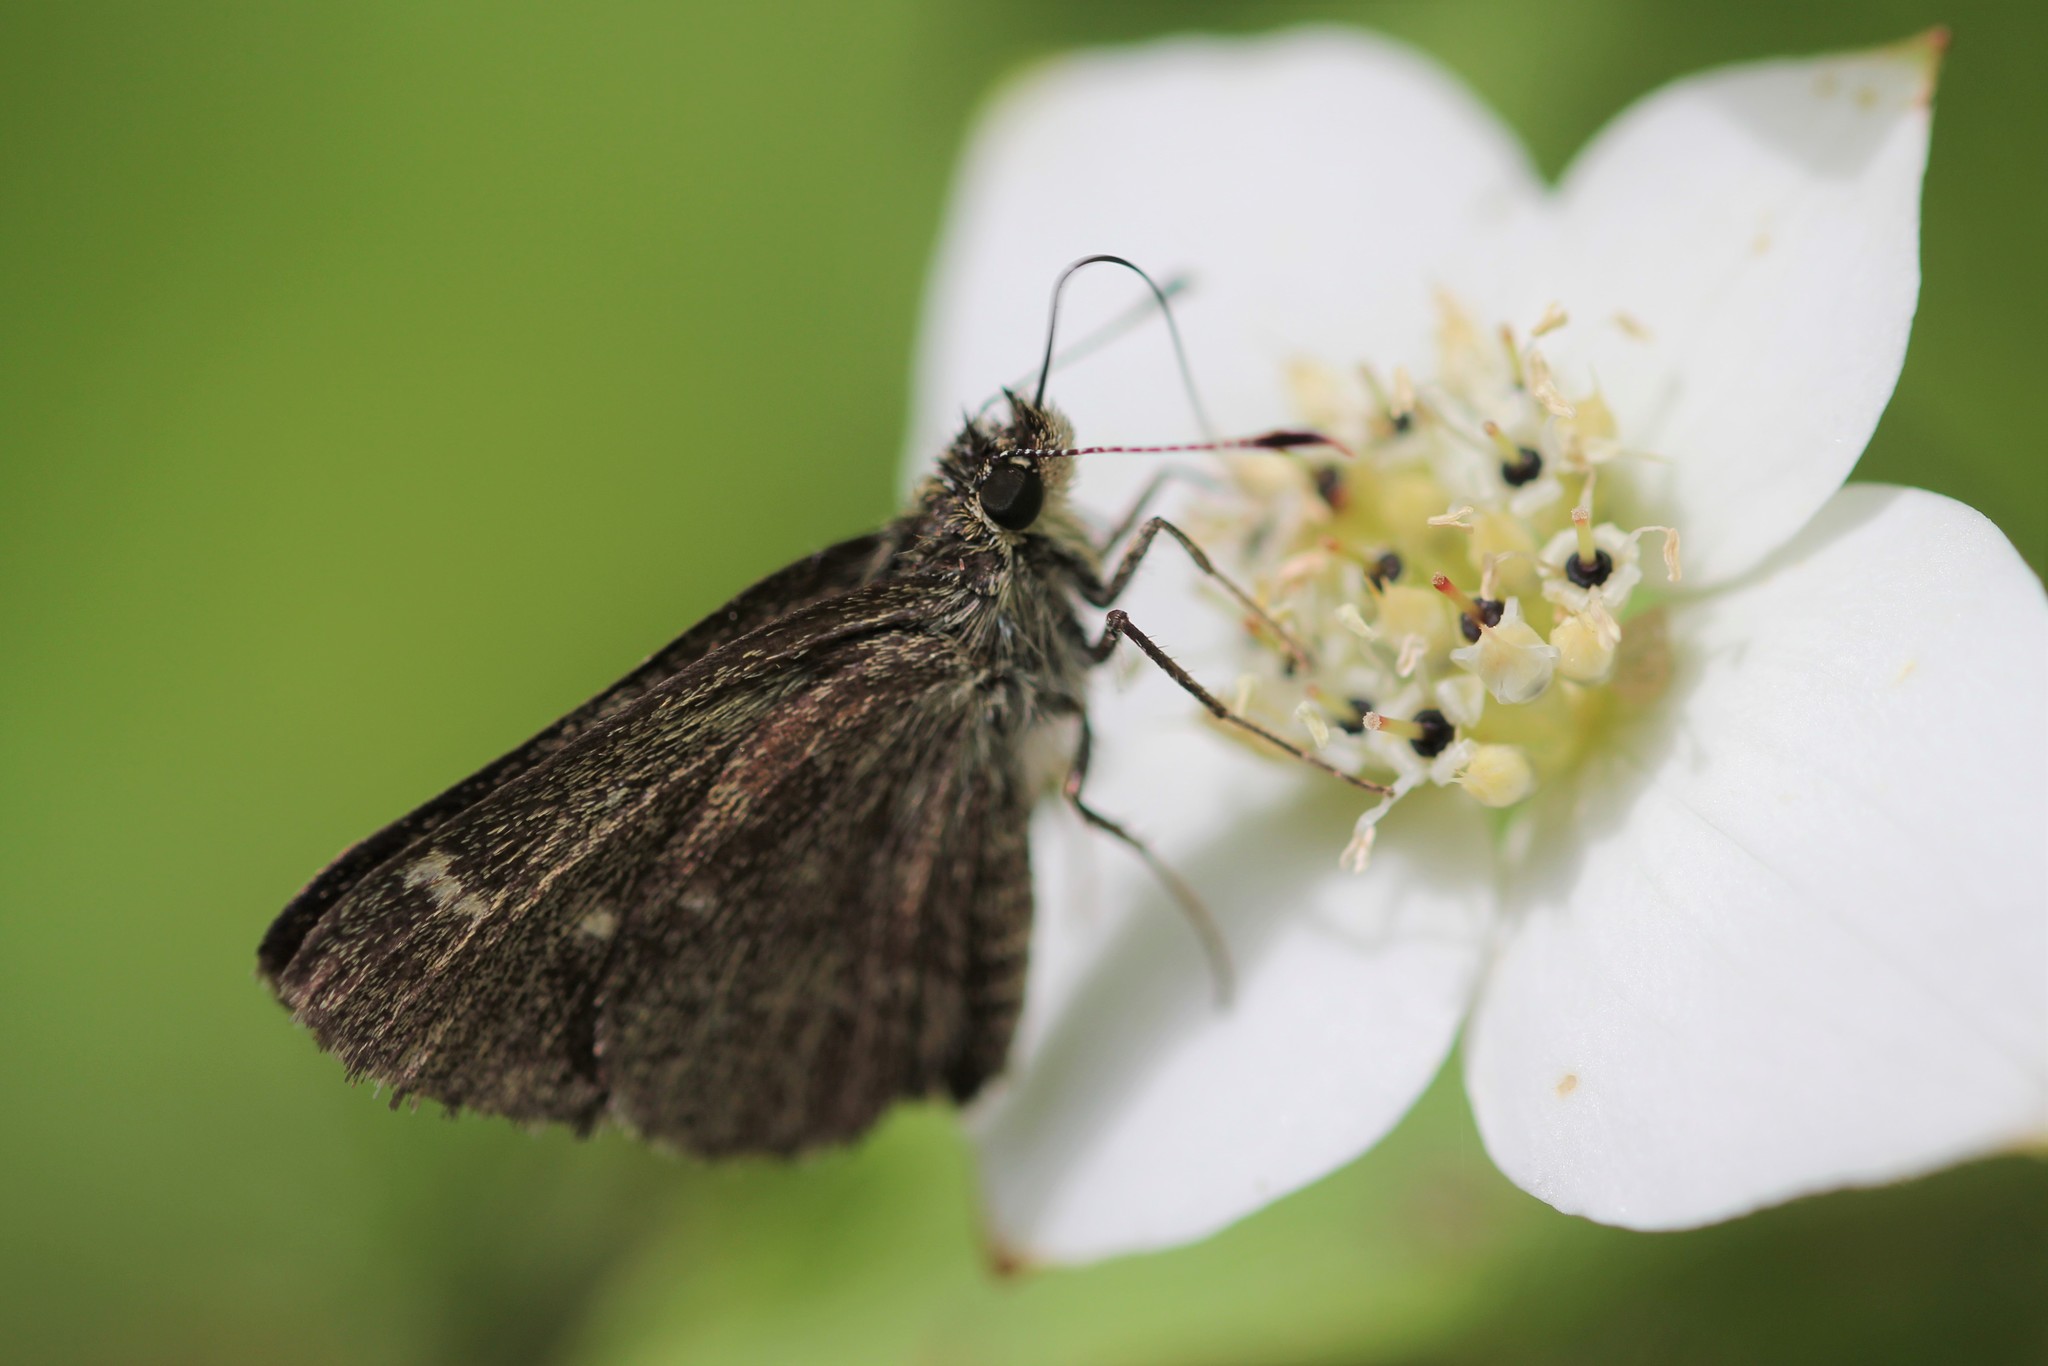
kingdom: Animalia
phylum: Arthropoda
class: Insecta
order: Lepidoptera
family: Hesperiidae
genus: Mastor
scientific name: Mastor hegon
